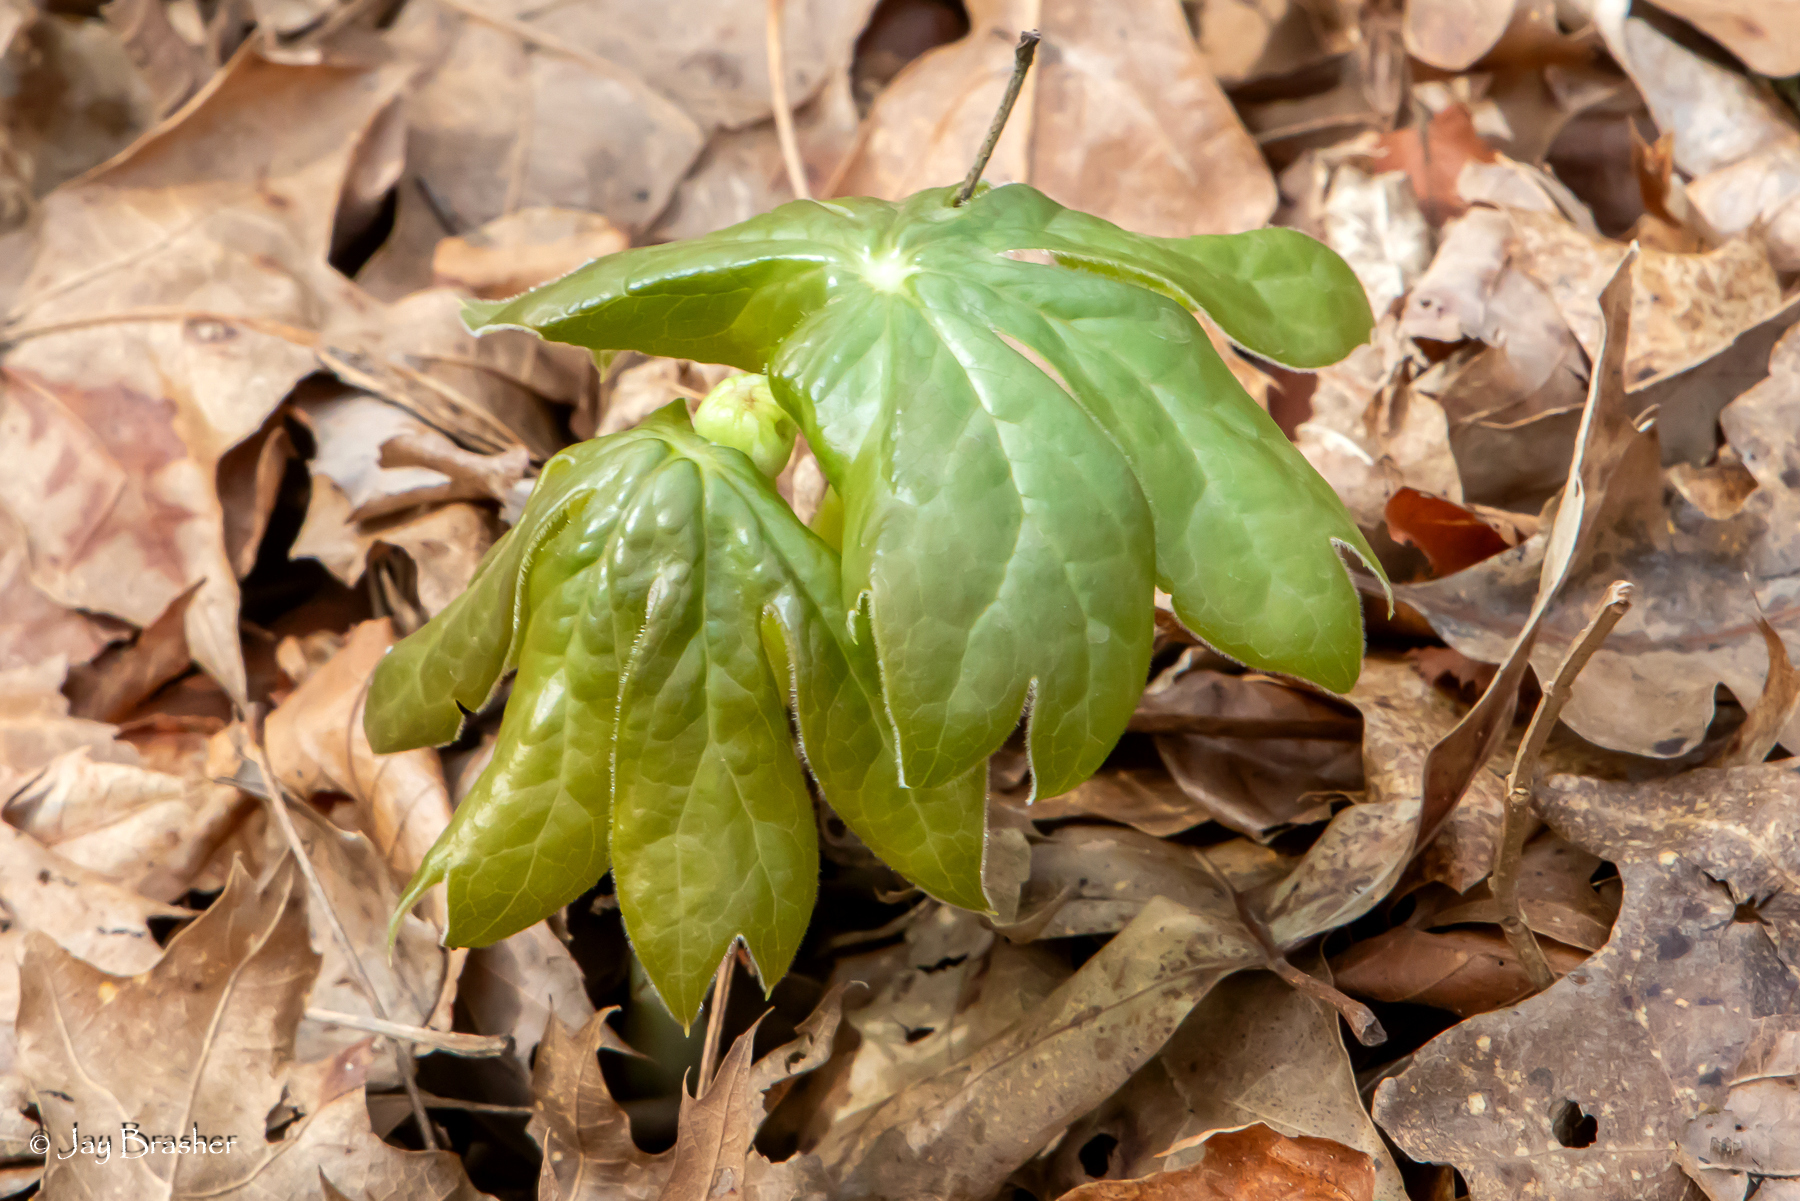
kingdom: Plantae
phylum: Tracheophyta
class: Magnoliopsida
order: Ranunculales
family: Berberidaceae
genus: Podophyllum
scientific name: Podophyllum peltatum
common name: Wild mandrake
